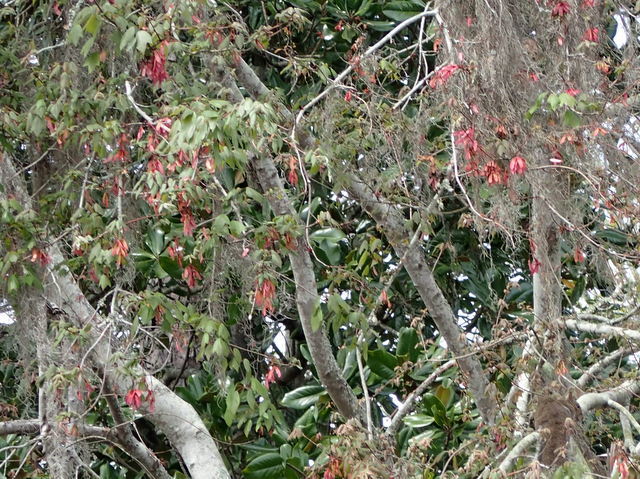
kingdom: Plantae
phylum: Tracheophyta
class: Magnoliopsida
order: Sapindales
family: Sapindaceae
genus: Acer
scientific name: Acer rubrum
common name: Red maple
